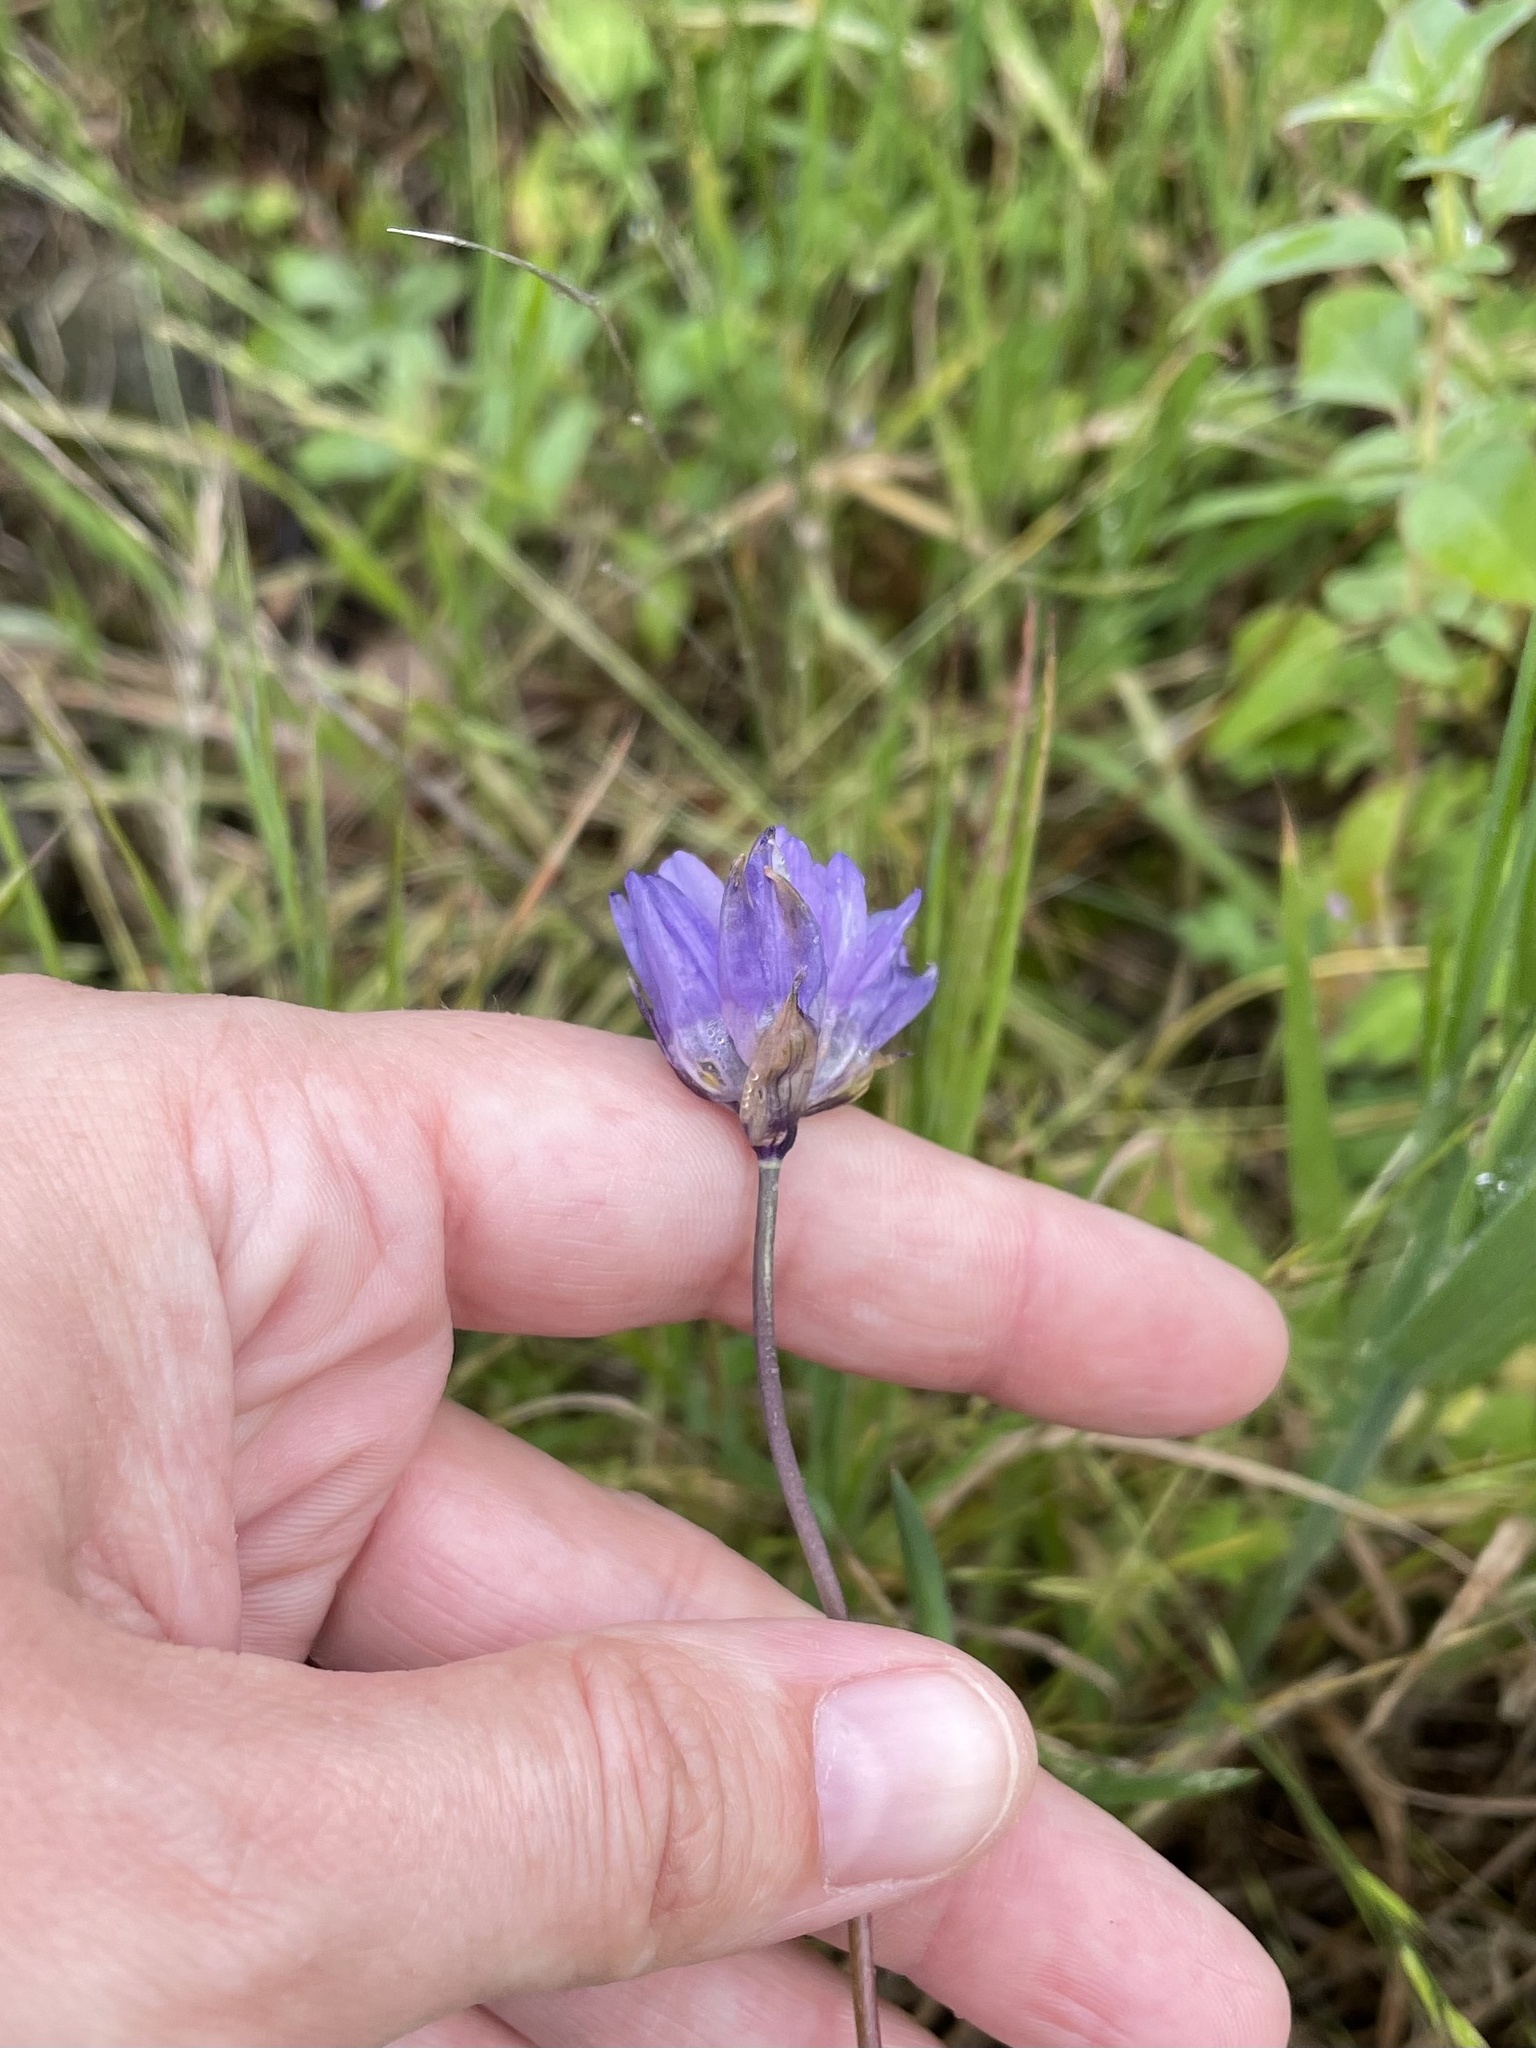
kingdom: Plantae
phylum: Tracheophyta
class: Liliopsida
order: Asparagales
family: Asparagaceae
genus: Dipterostemon
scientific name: Dipterostemon capitatus
